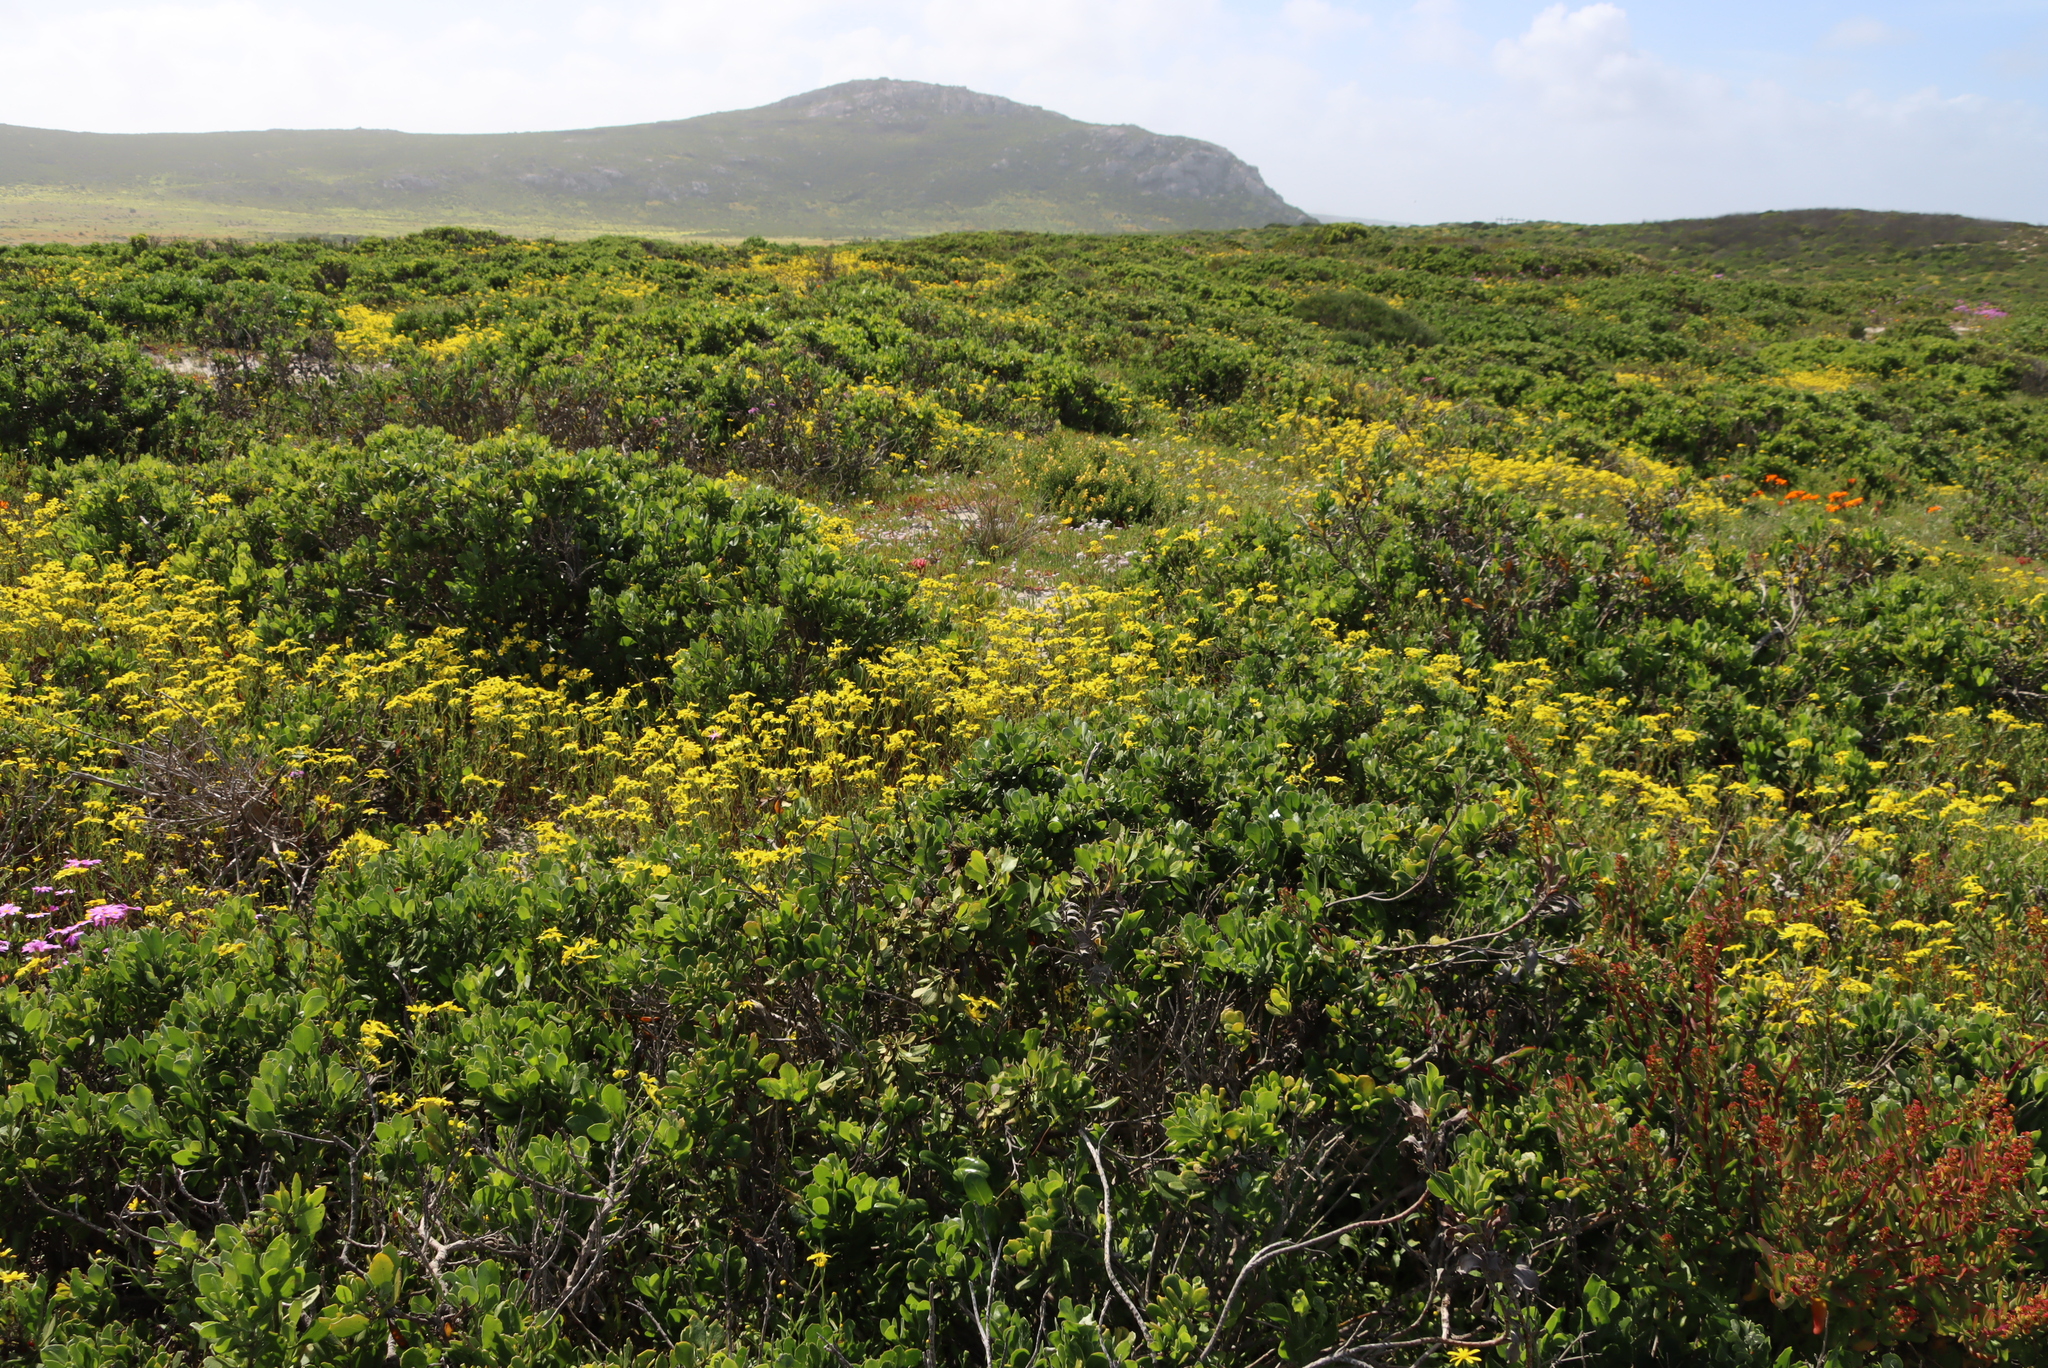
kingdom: Plantae
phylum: Tracheophyta
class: Magnoliopsida
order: Asterales
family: Asteraceae
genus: Osteospermum
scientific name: Osteospermum moniliferum
